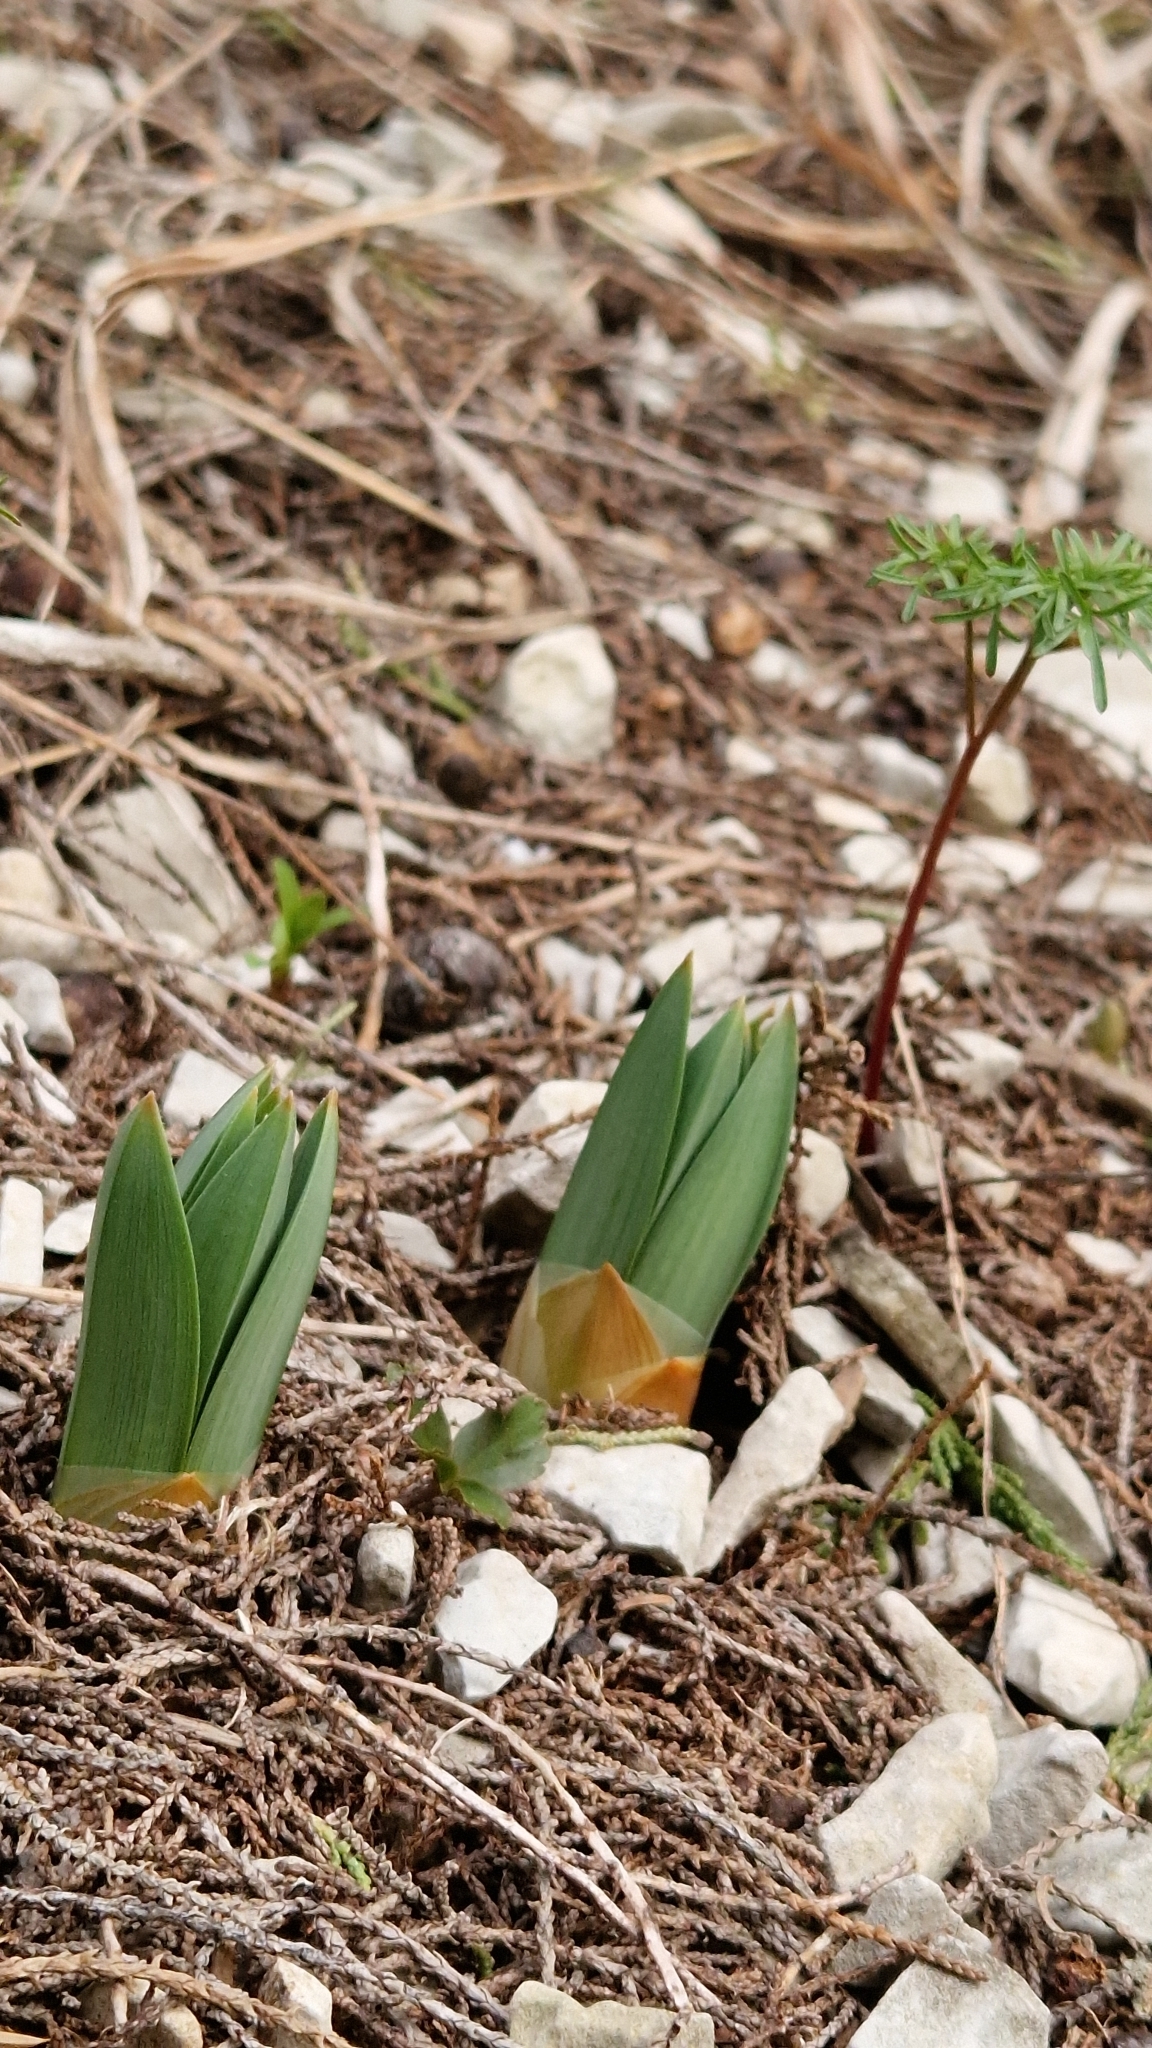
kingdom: Plantae
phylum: Tracheophyta
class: Liliopsida
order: Asparagales
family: Asphodelaceae
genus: Eremurus
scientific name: Eremurus spectabilis
